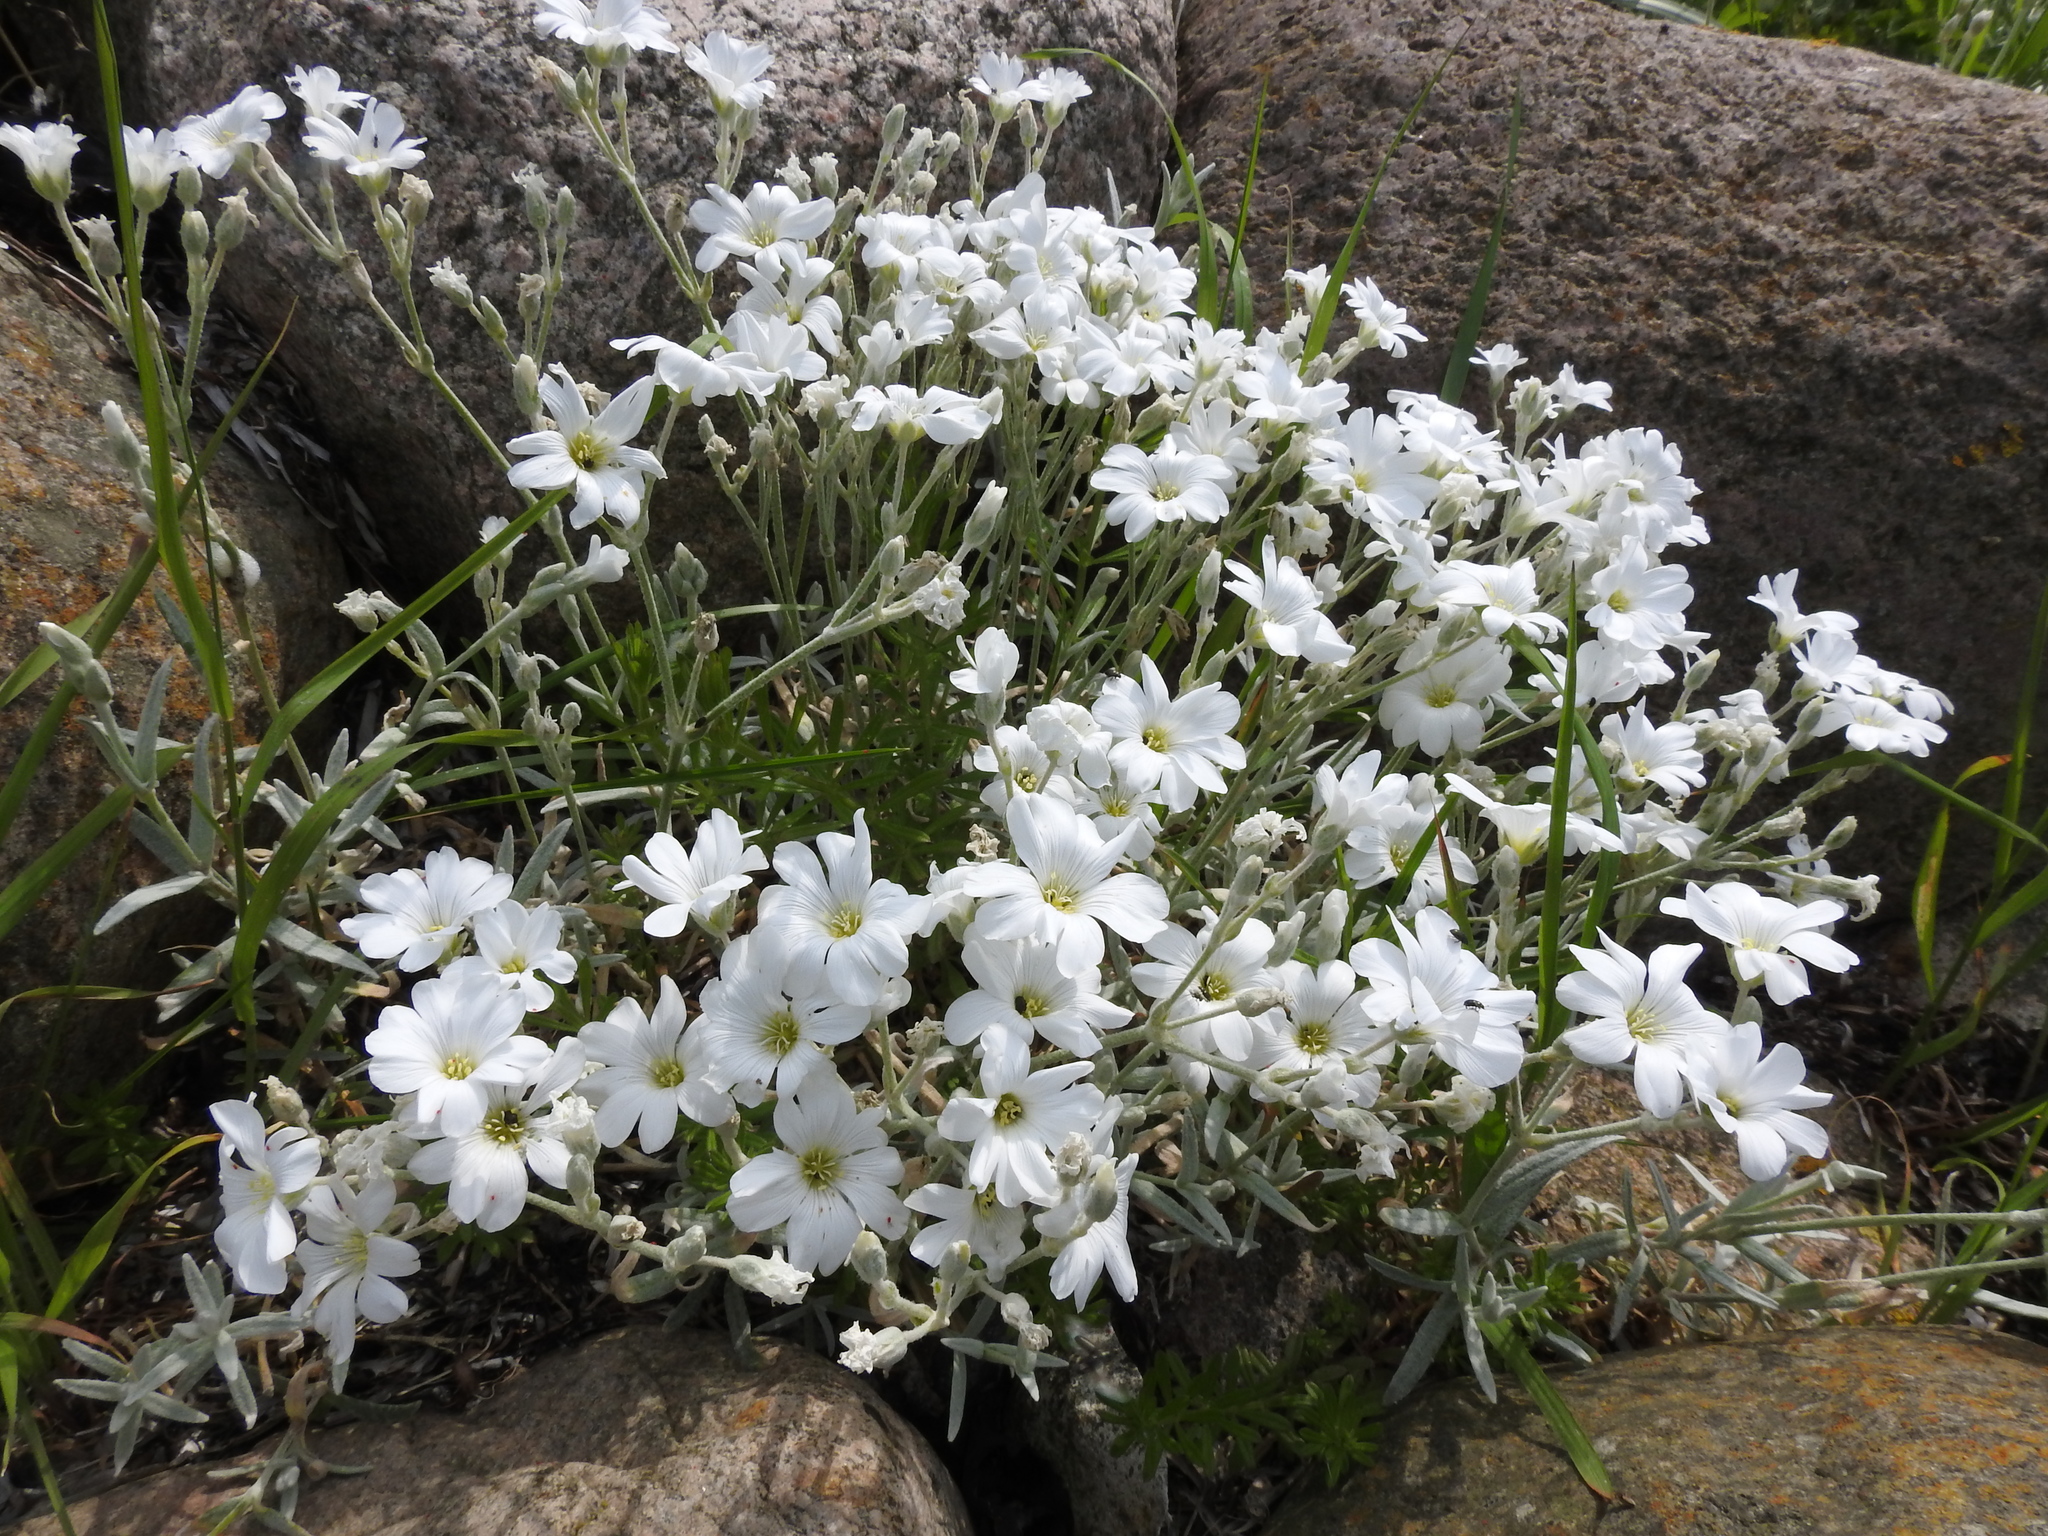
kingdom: Plantae
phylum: Tracheophyta
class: Magnoliopsida
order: Caryophyllales
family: Caryophyllaceae
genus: Cerastium
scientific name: Cerastium tomentosum
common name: Snow-in-summer
